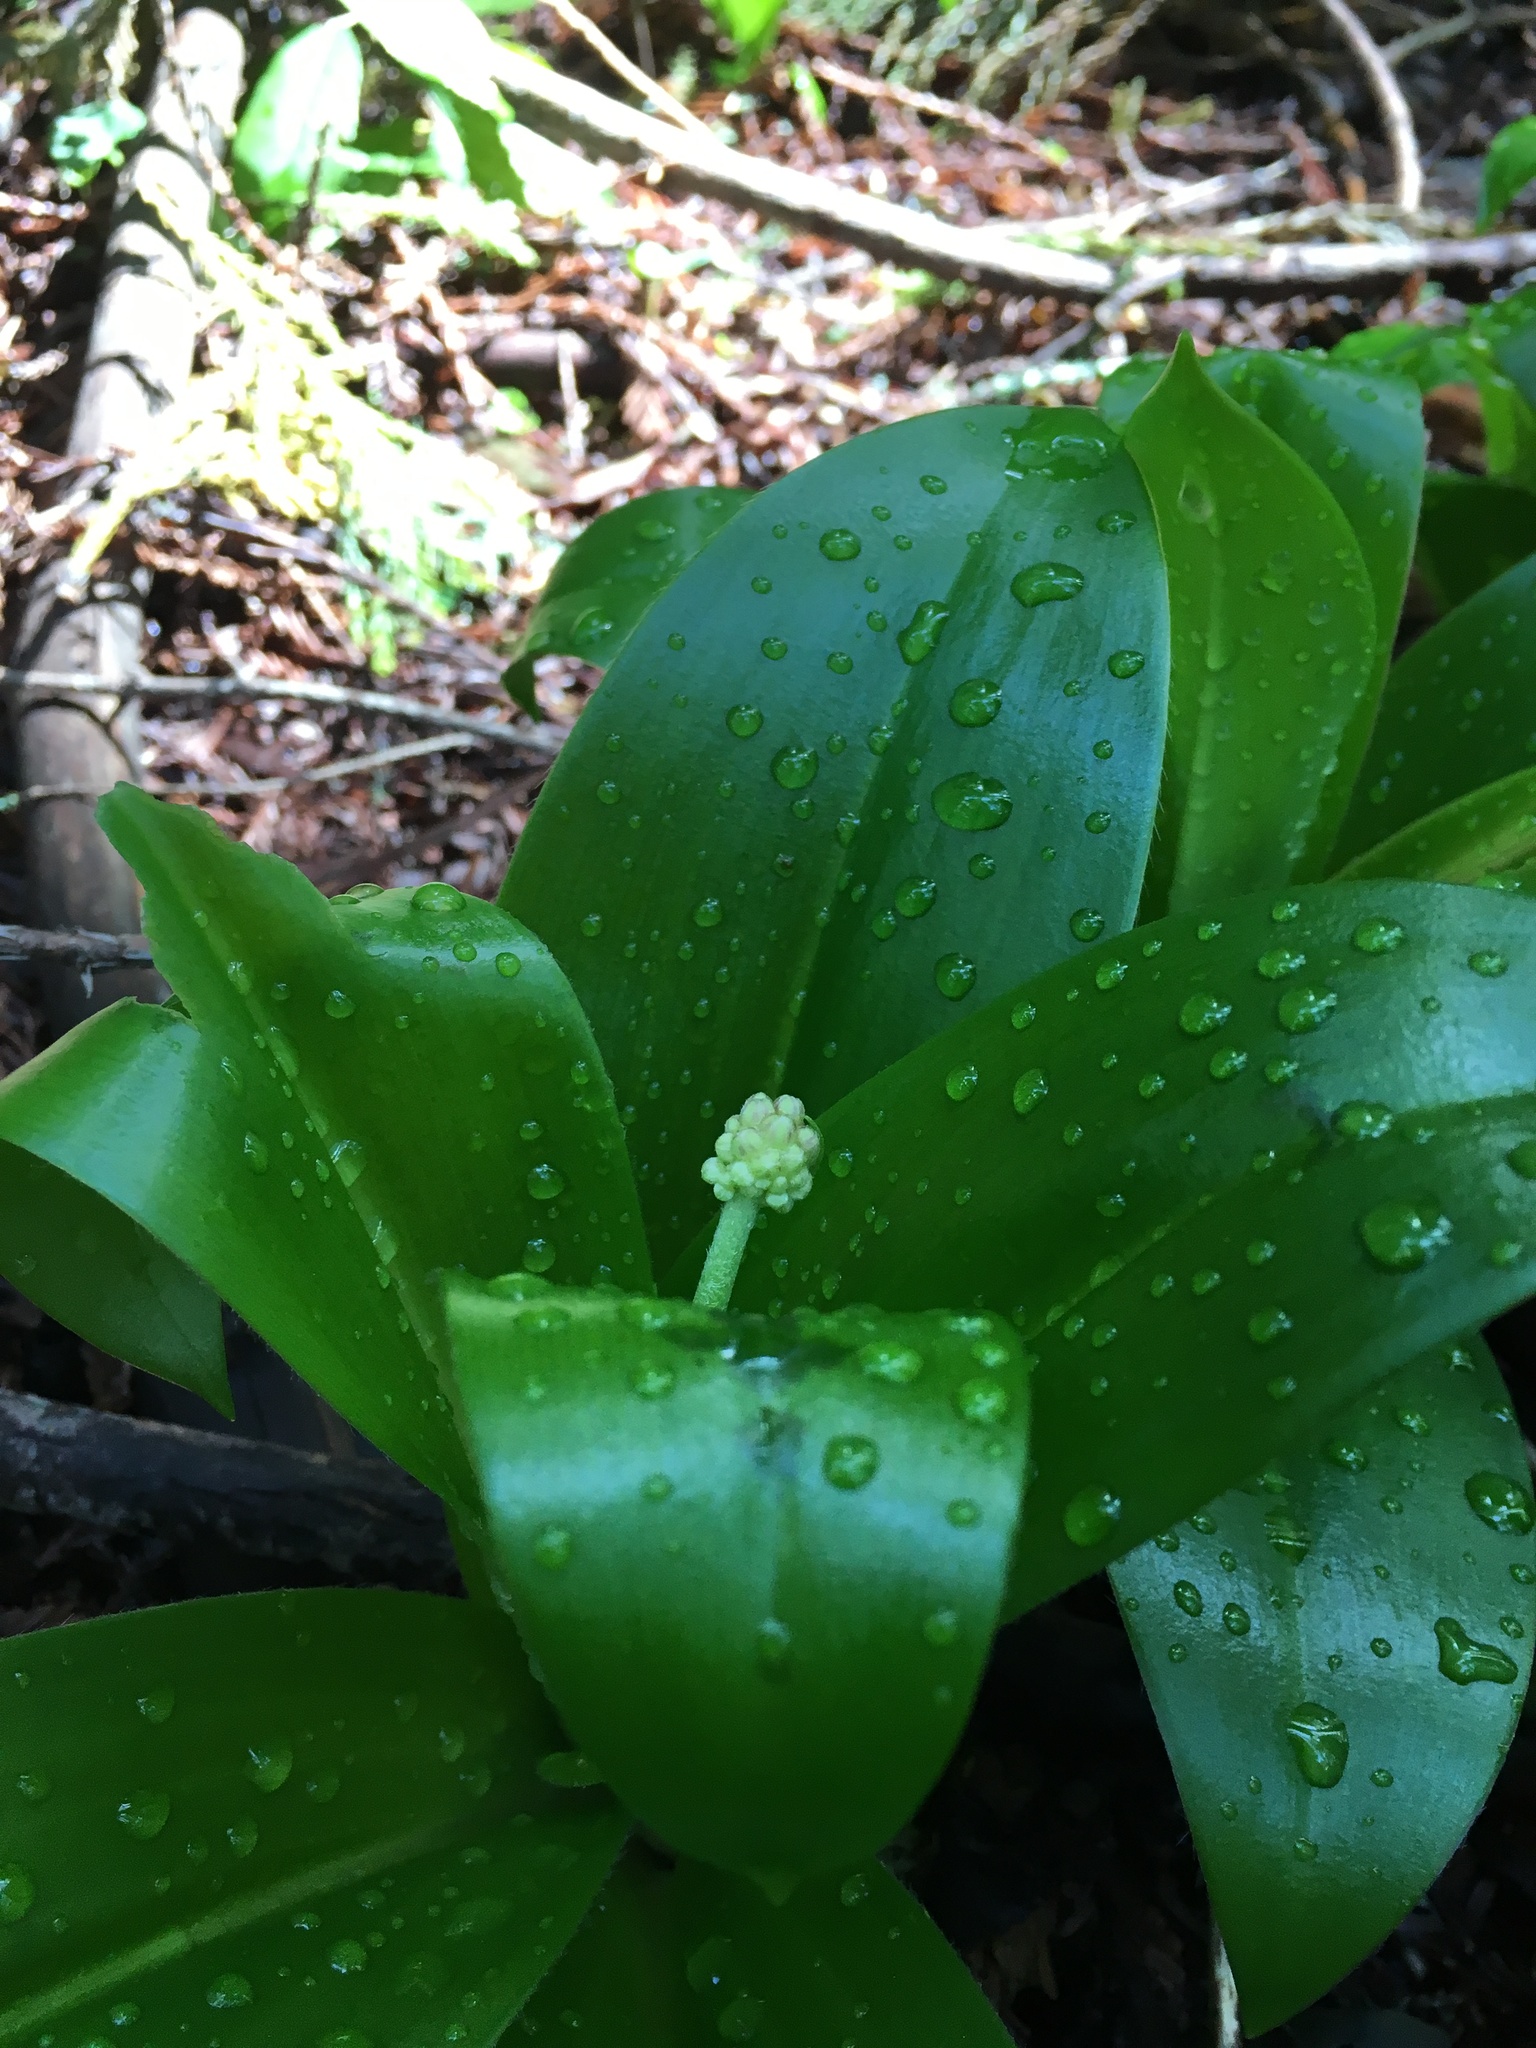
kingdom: Plantae
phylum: Tracheophyta
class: Liliopsida
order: Liliales
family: Liliaceae
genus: Clintonia
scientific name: Clintonia andrewsiana
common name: Red clintonia
